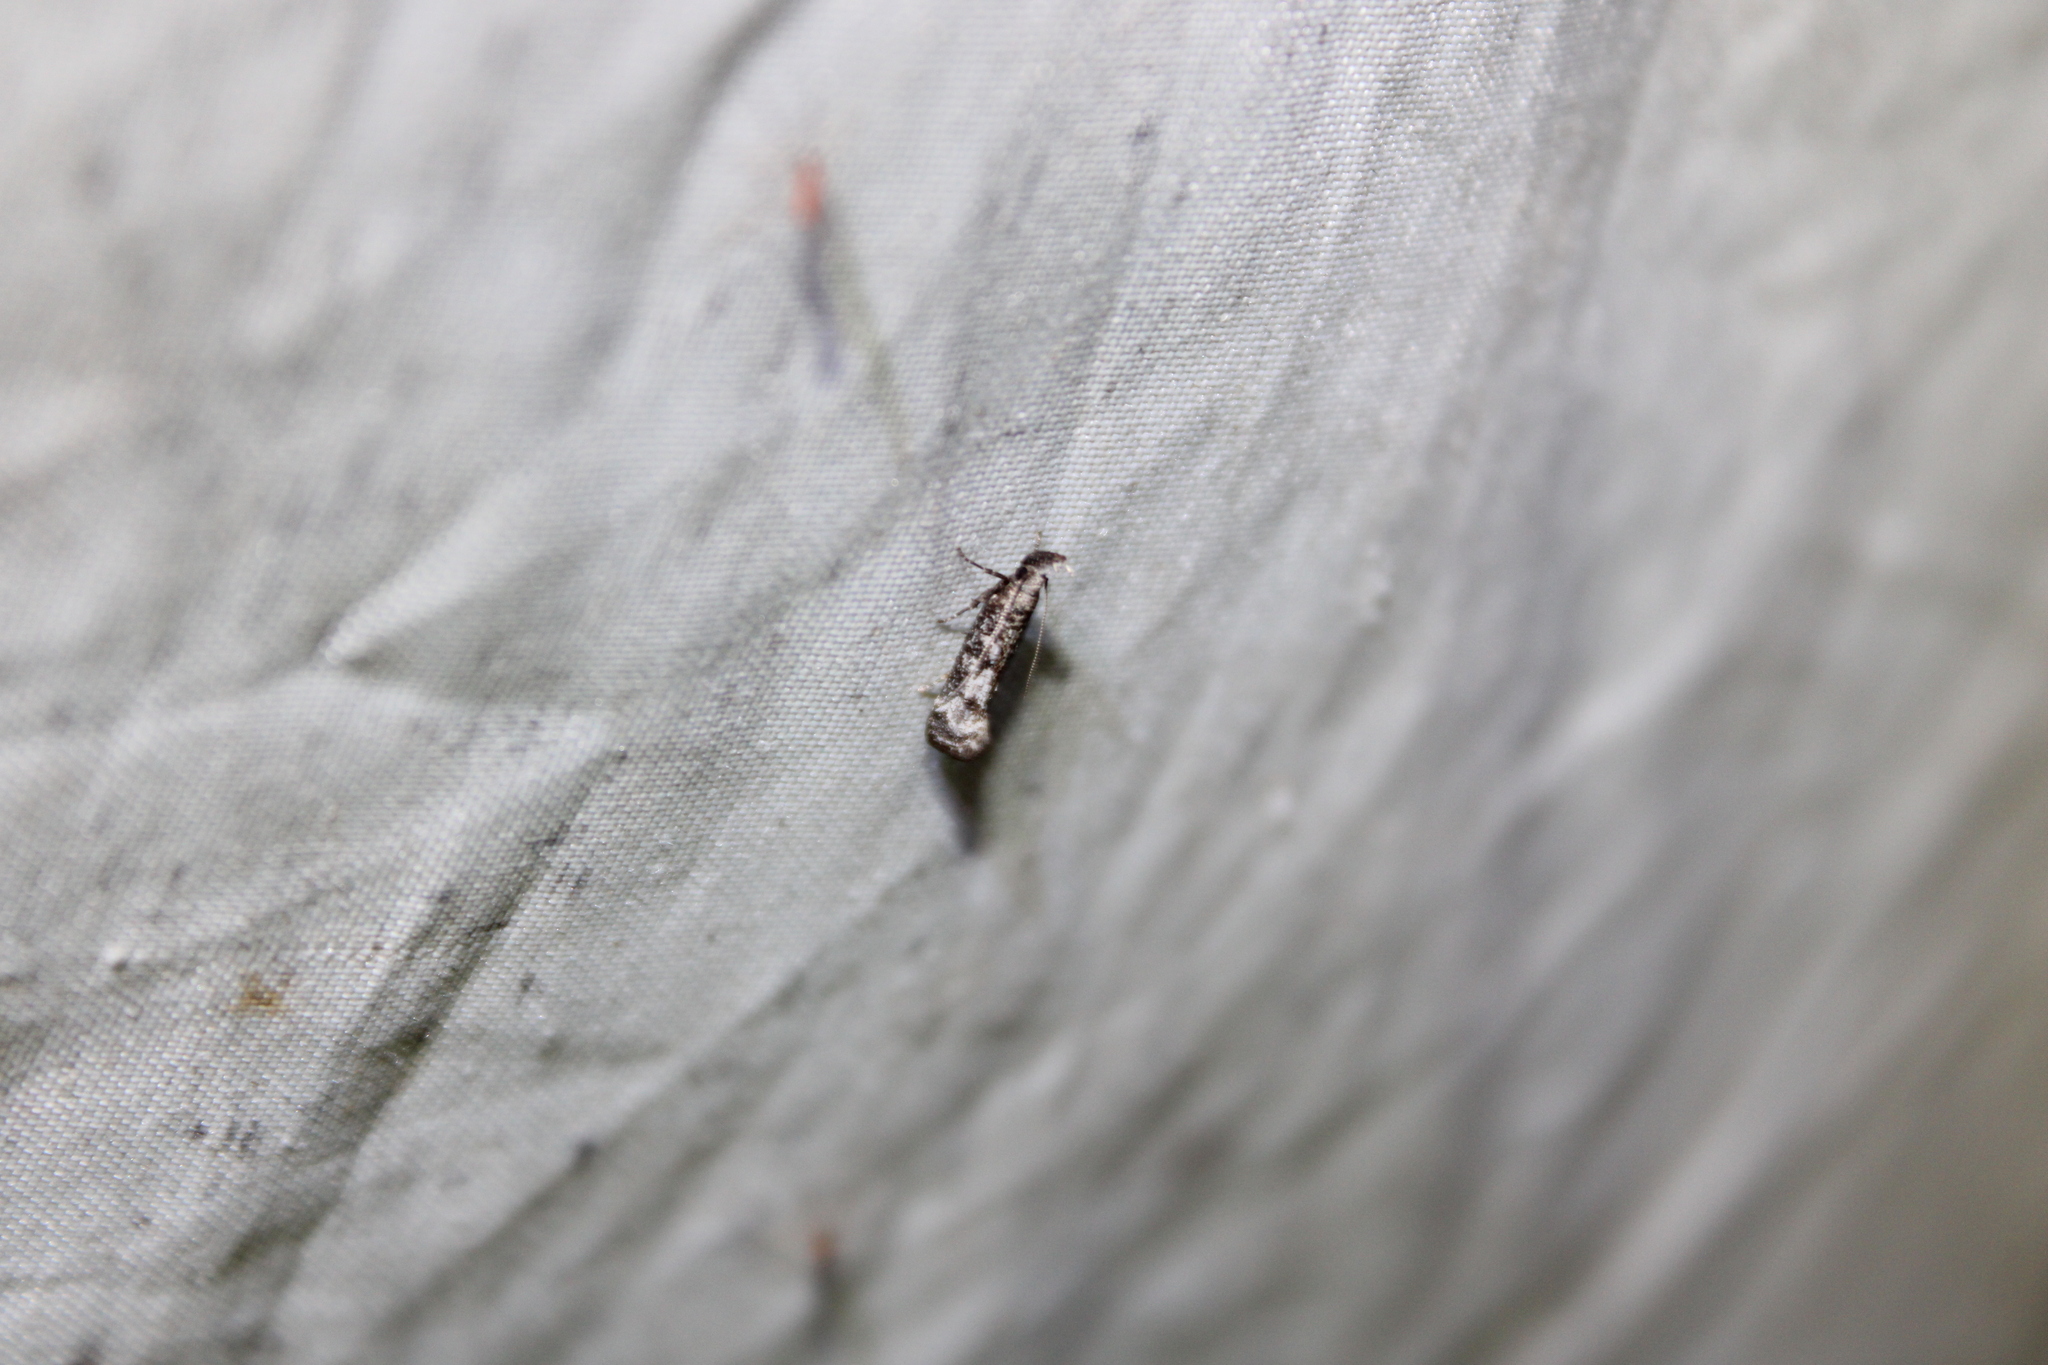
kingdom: Animalia
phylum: Arthropoda
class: Insecta
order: Lepidoptera
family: Gelechiidae
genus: Dichomeris
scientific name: Dichomeris inversella
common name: Inverse dichomeris moth
